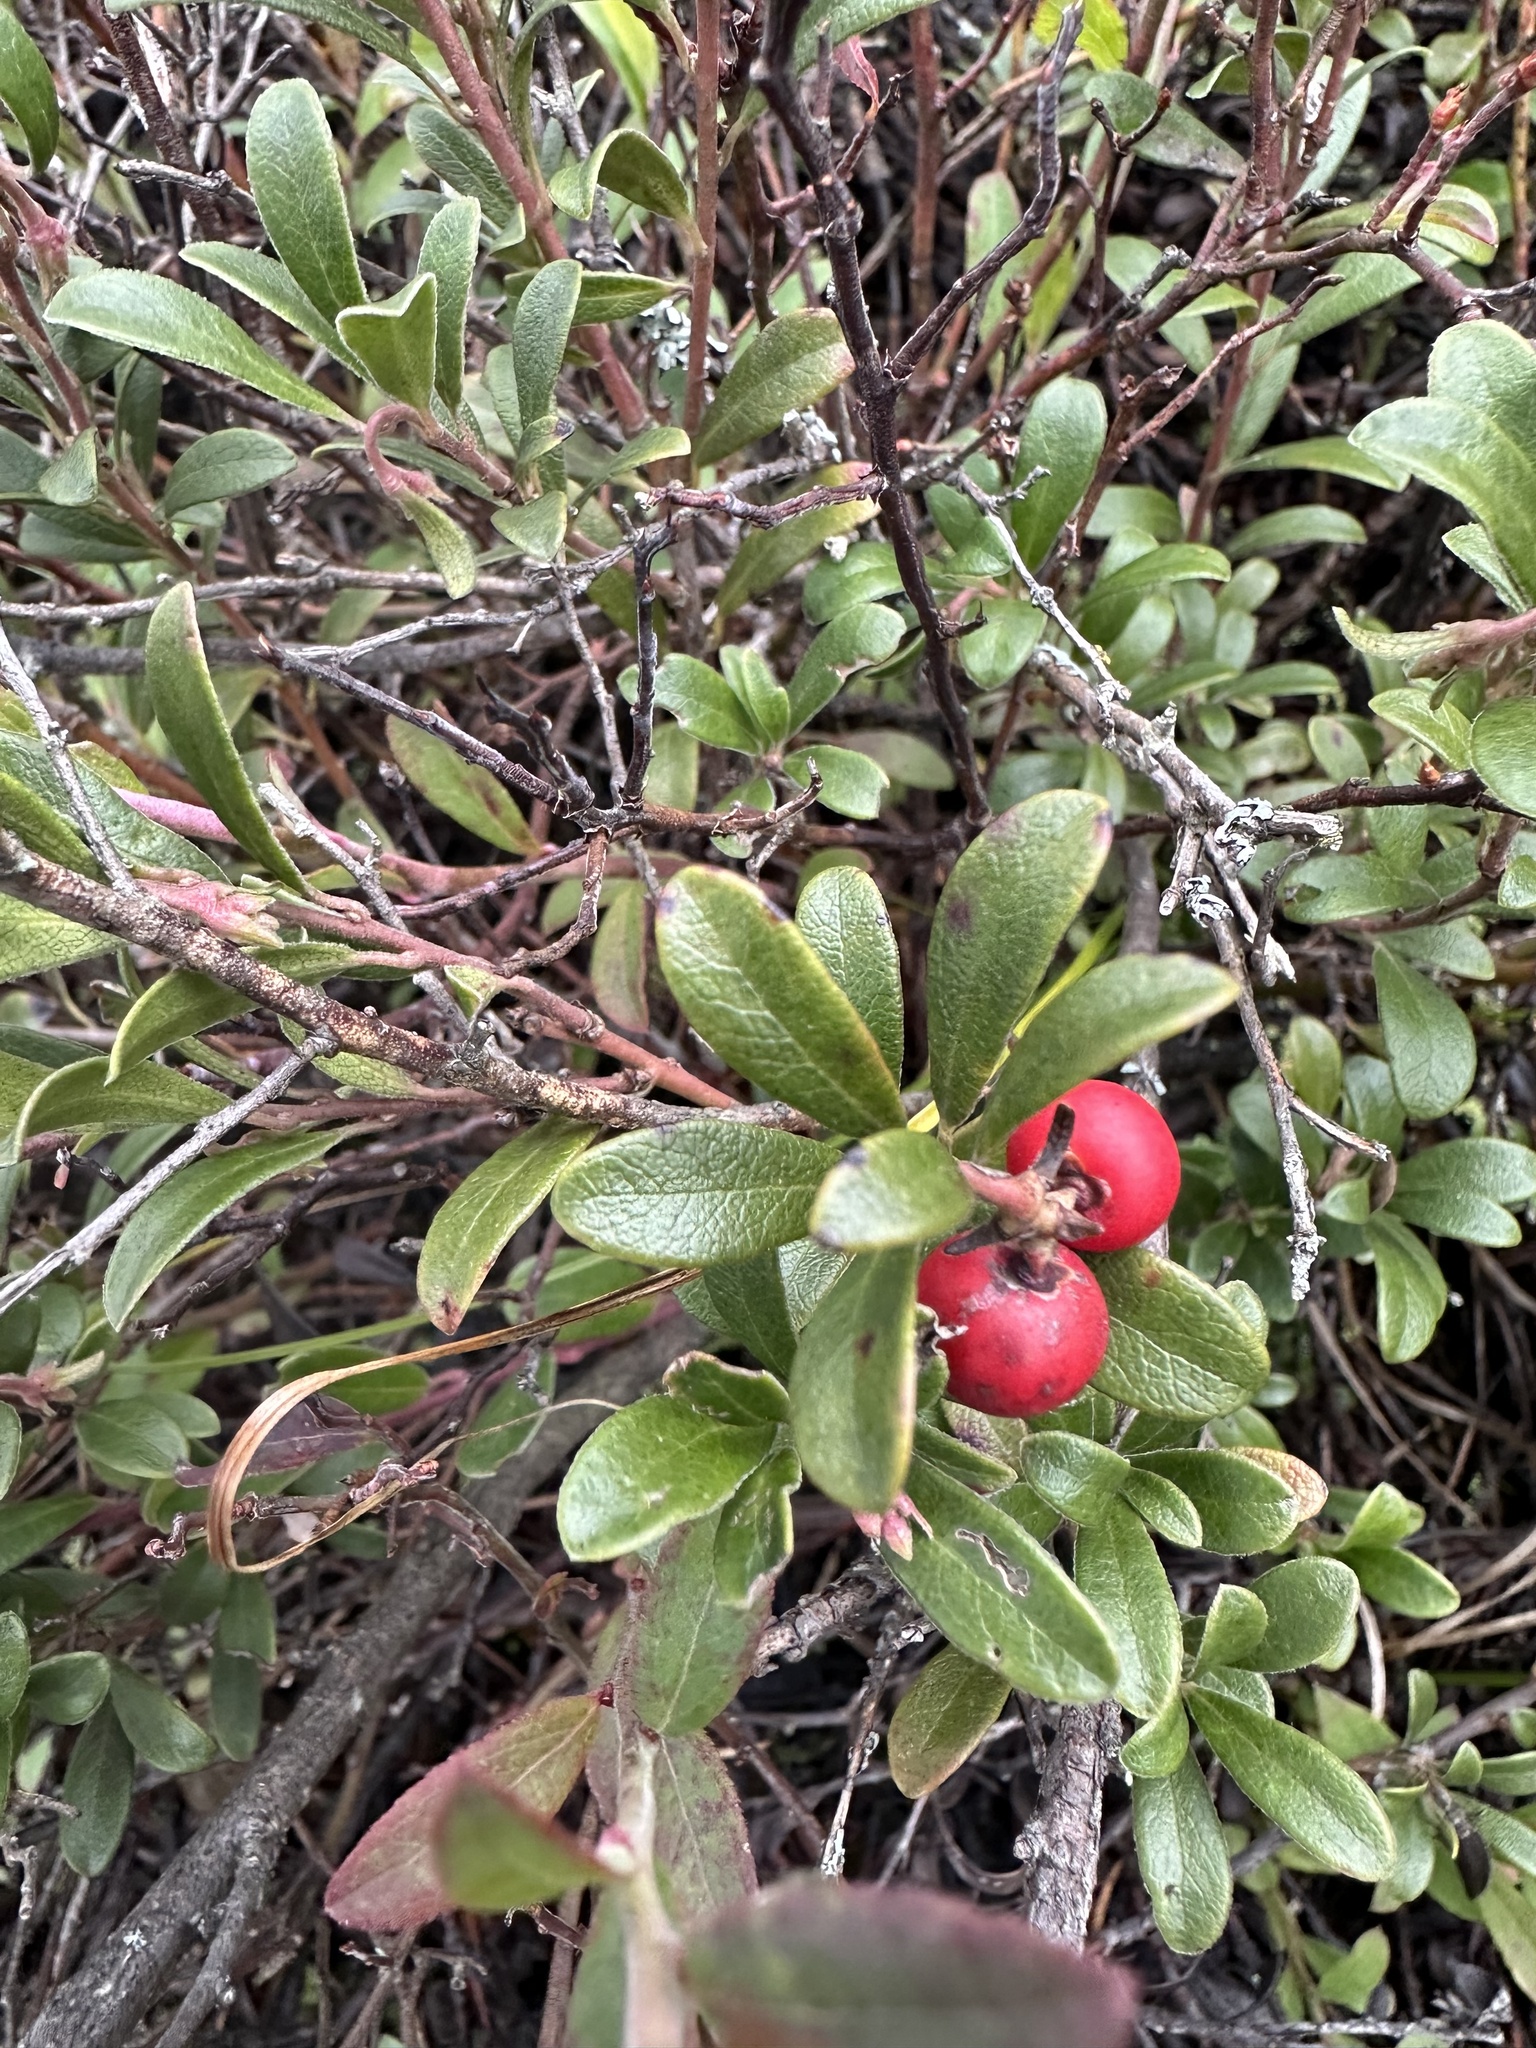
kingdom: Plantae
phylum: Tracheophyta
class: Magnoliopsida
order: Ericales
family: Ericaceae
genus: Arctostaphylos
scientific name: Arctostaphylos uva-ursi
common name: Bearberry
